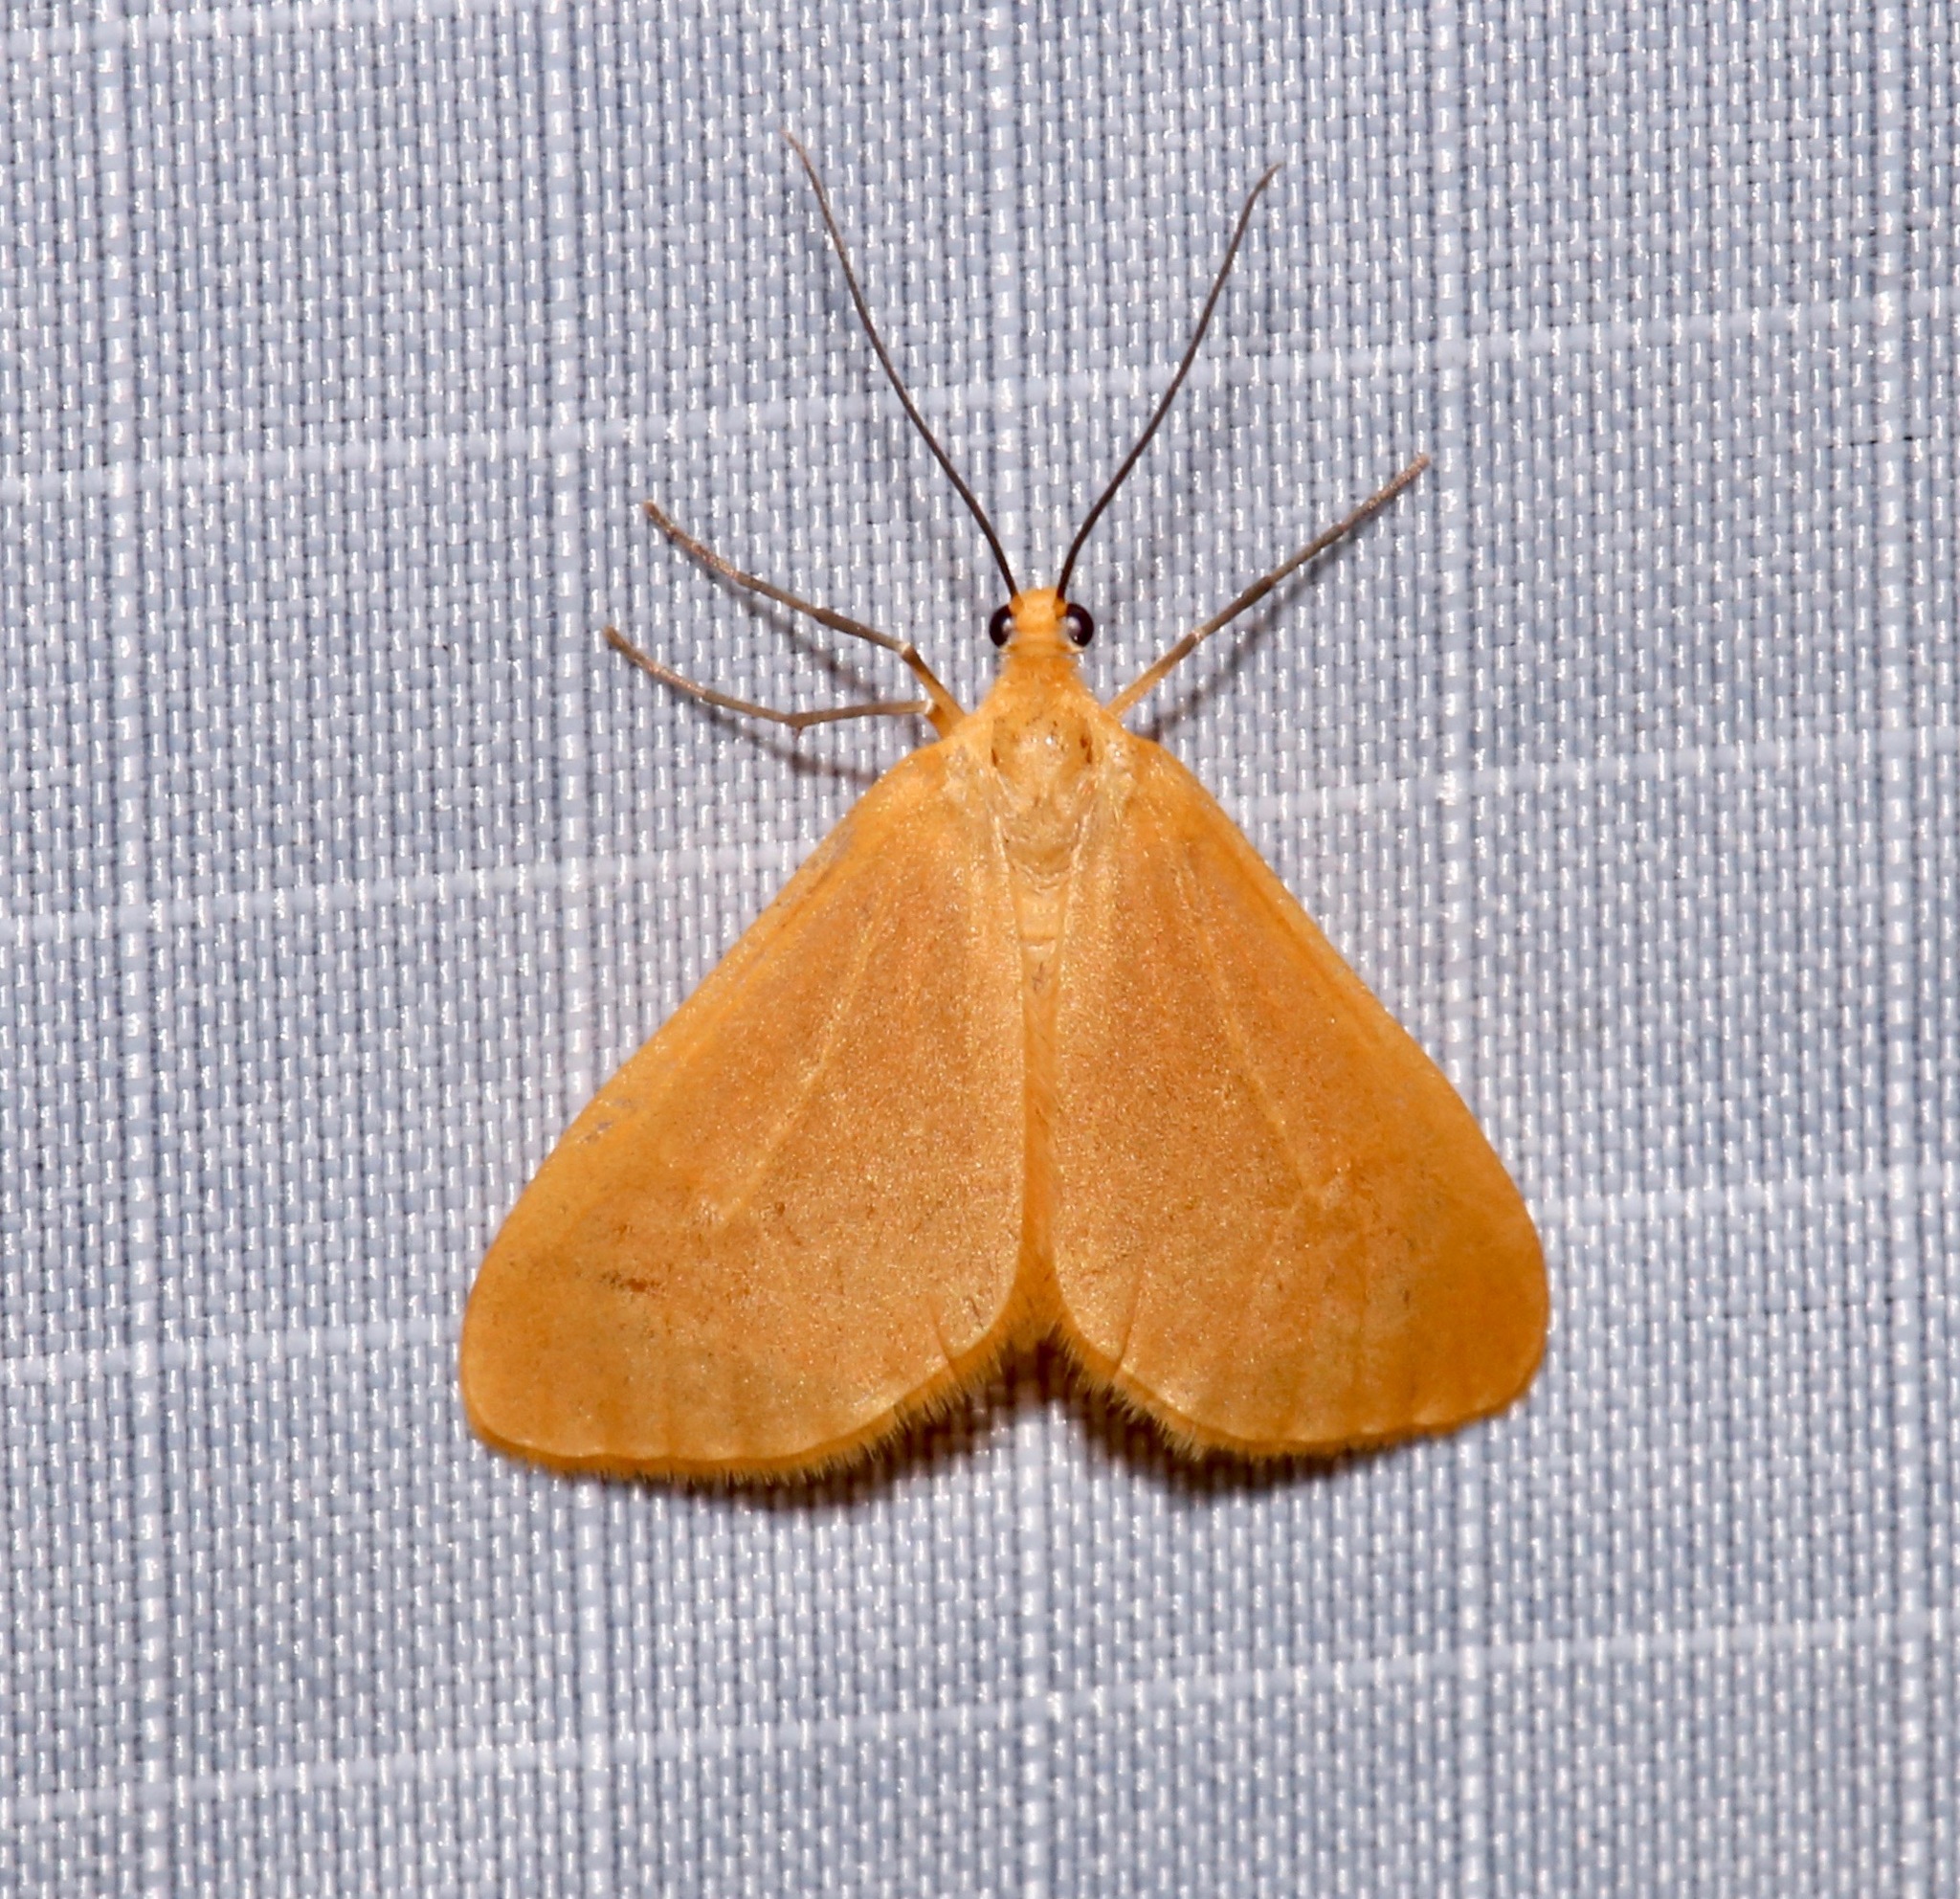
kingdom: Animalia
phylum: Arthropoda
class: Insecta
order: Lepidoptera
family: Geometridae
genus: Eubaphe
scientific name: Eubaphe unicolor
